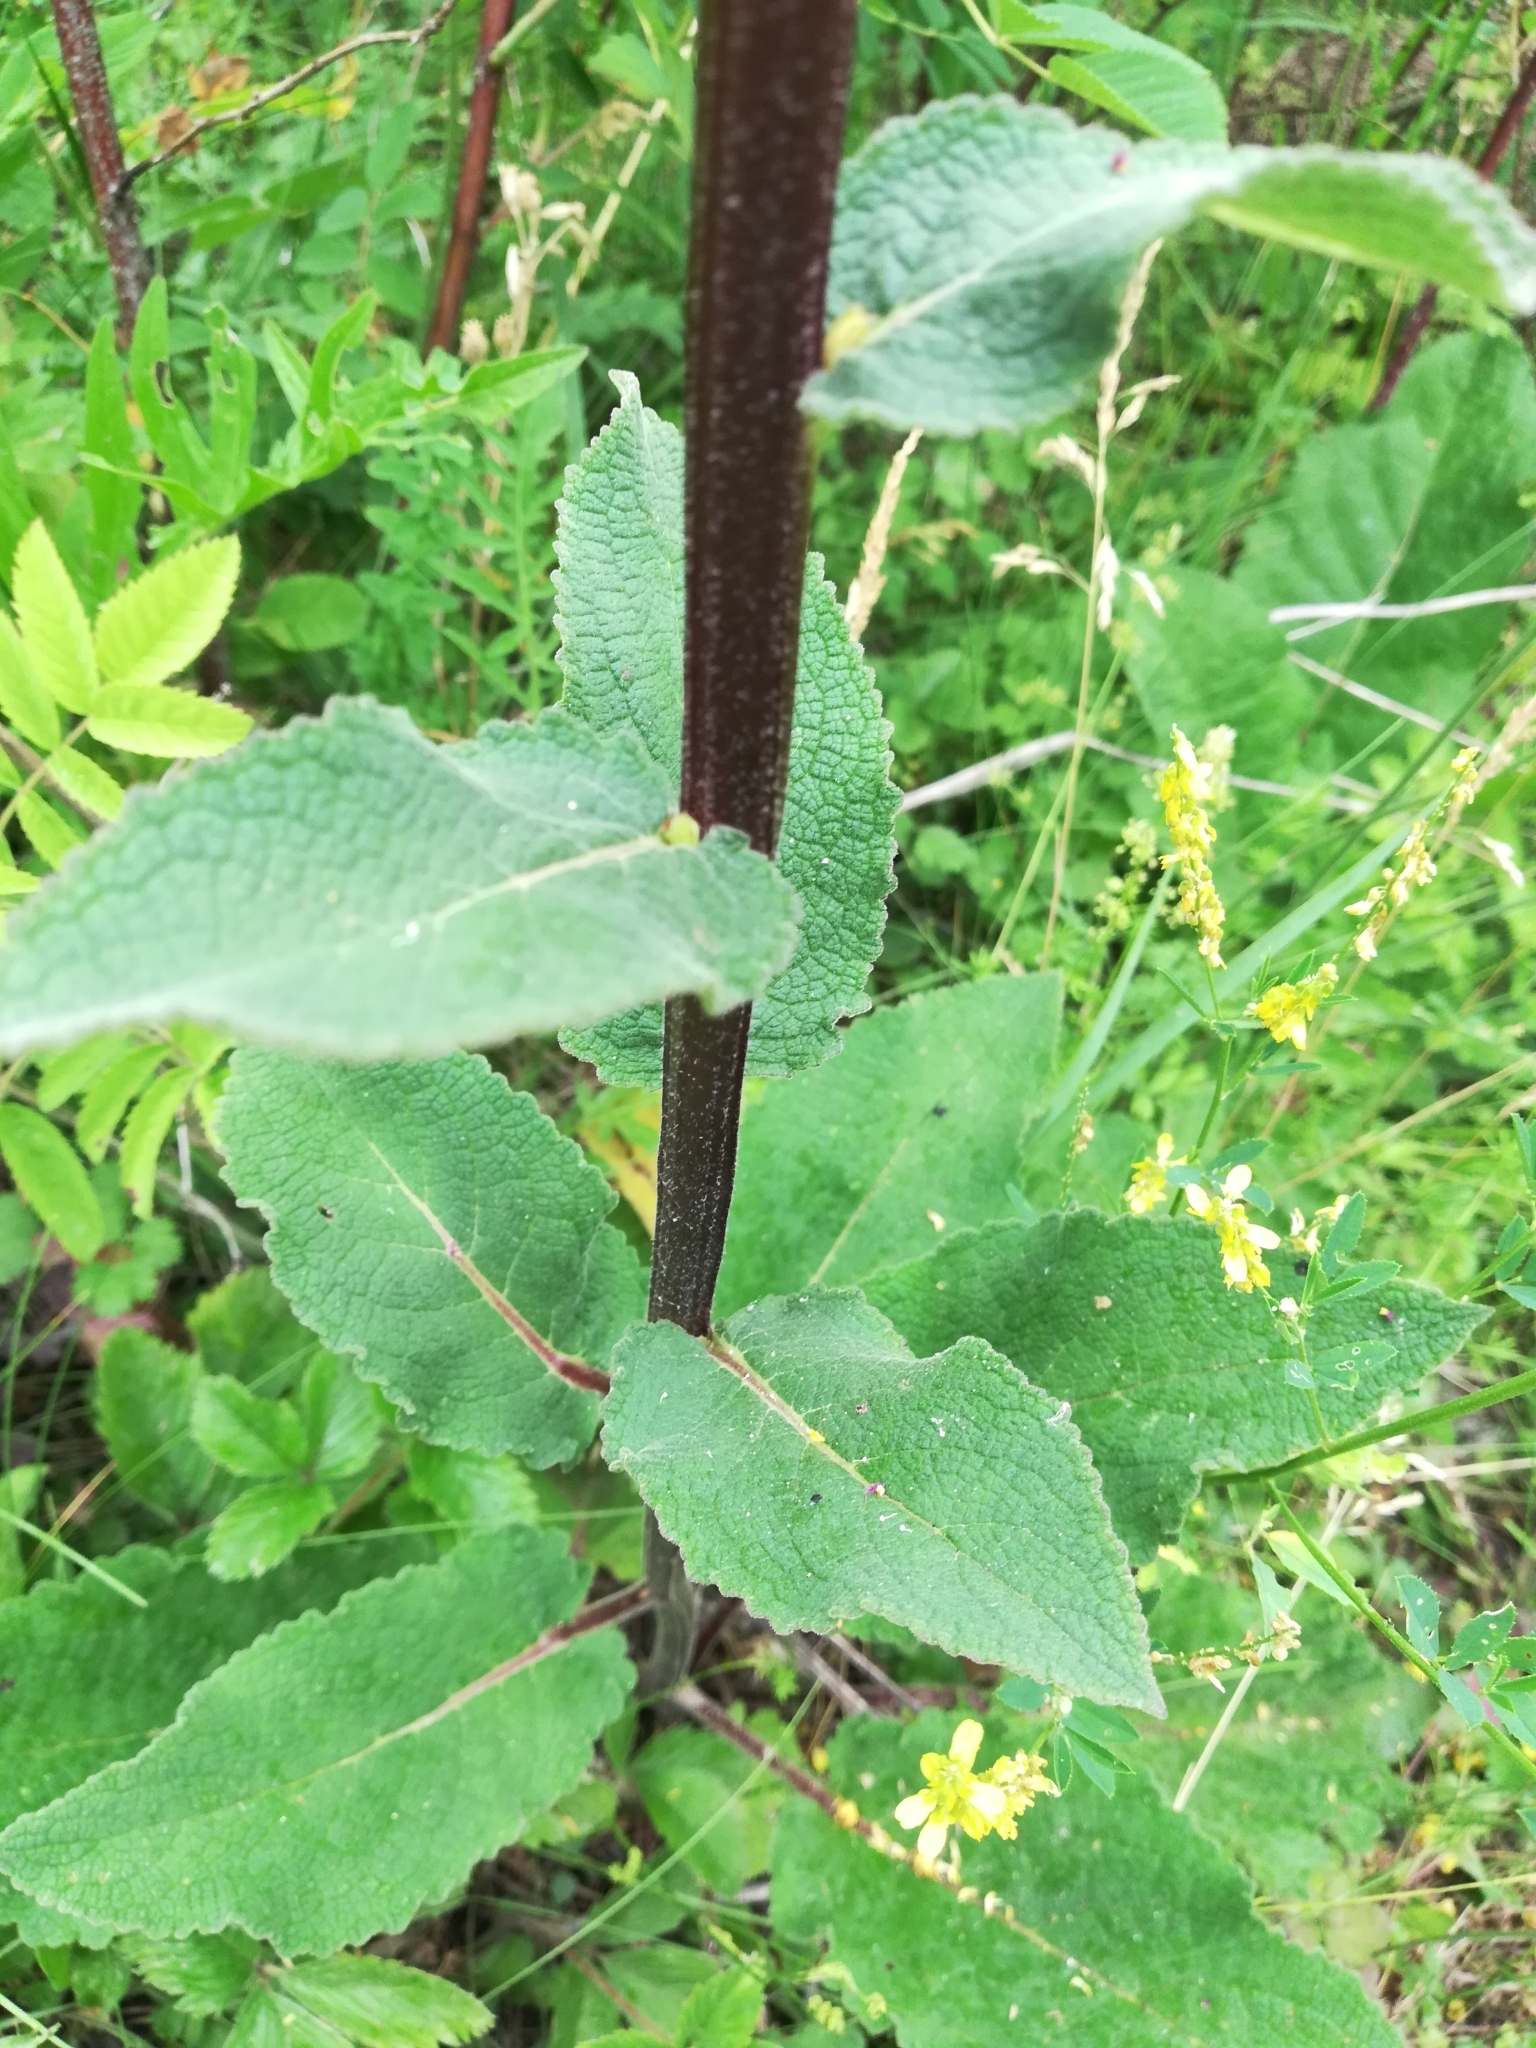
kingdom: Plantae
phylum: Tracheophyta
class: Magnoliopsida
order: Lamiales
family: Scrophulariaceae
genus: Verbascum
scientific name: Verbascum nigrum
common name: Dark mullein
